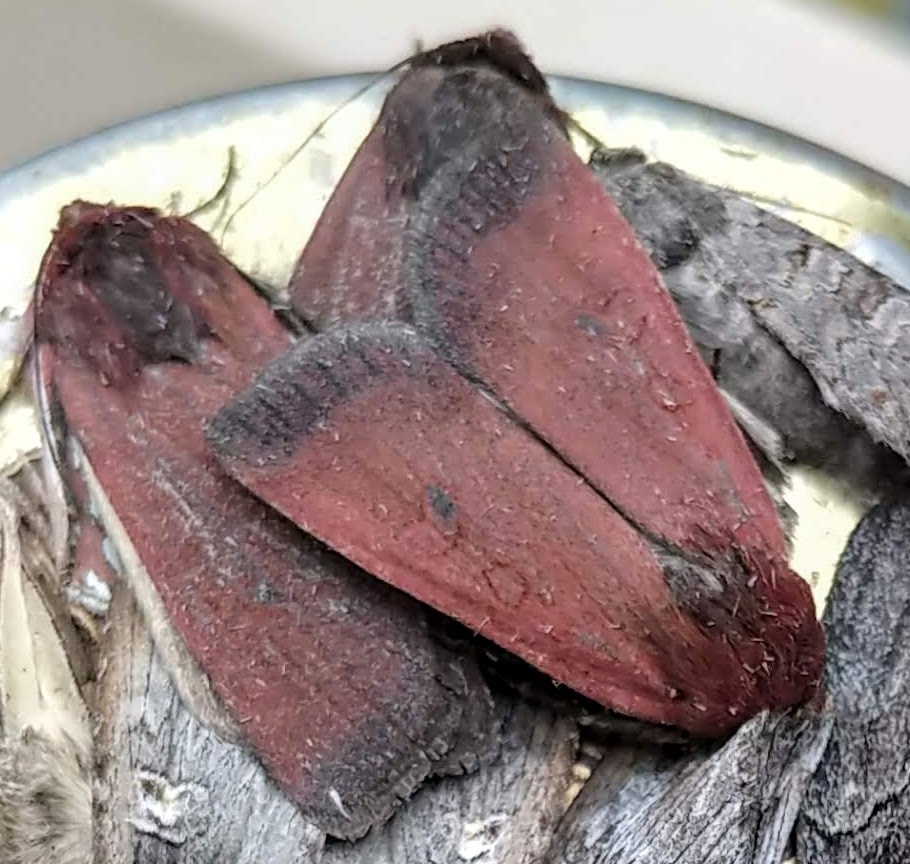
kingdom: Animalia
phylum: Arthropoda
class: Insecta
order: Lepidoptera
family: Noctuidae
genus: Euxoa
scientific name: Euxoa perpolita
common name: Polished dart
